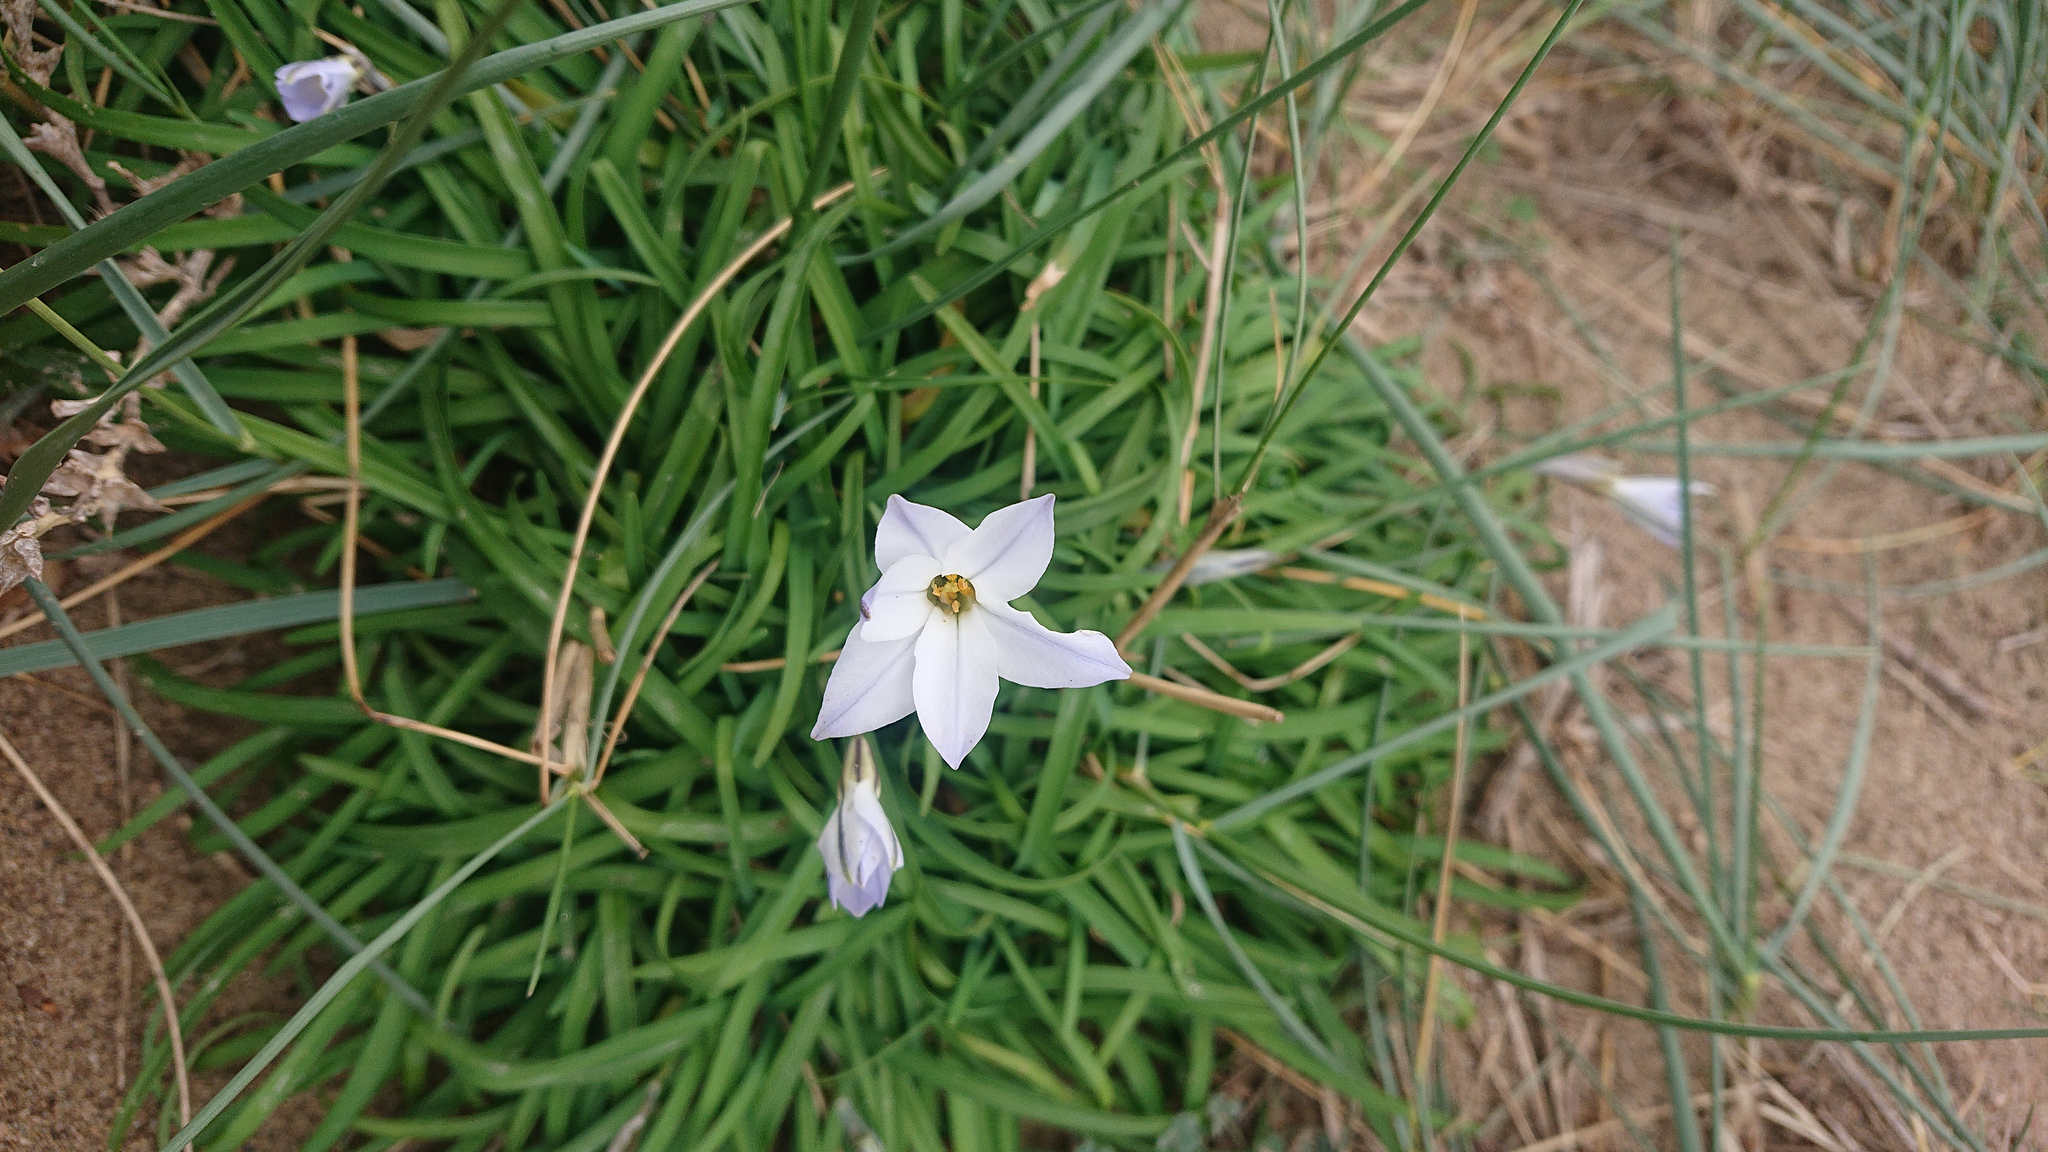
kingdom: Plantae
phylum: Tracheophyta
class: Liliopsida
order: Asparagales
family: Amaryllidaceae
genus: Ipheion
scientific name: Ipheion uniflorum
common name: Spring starflower
